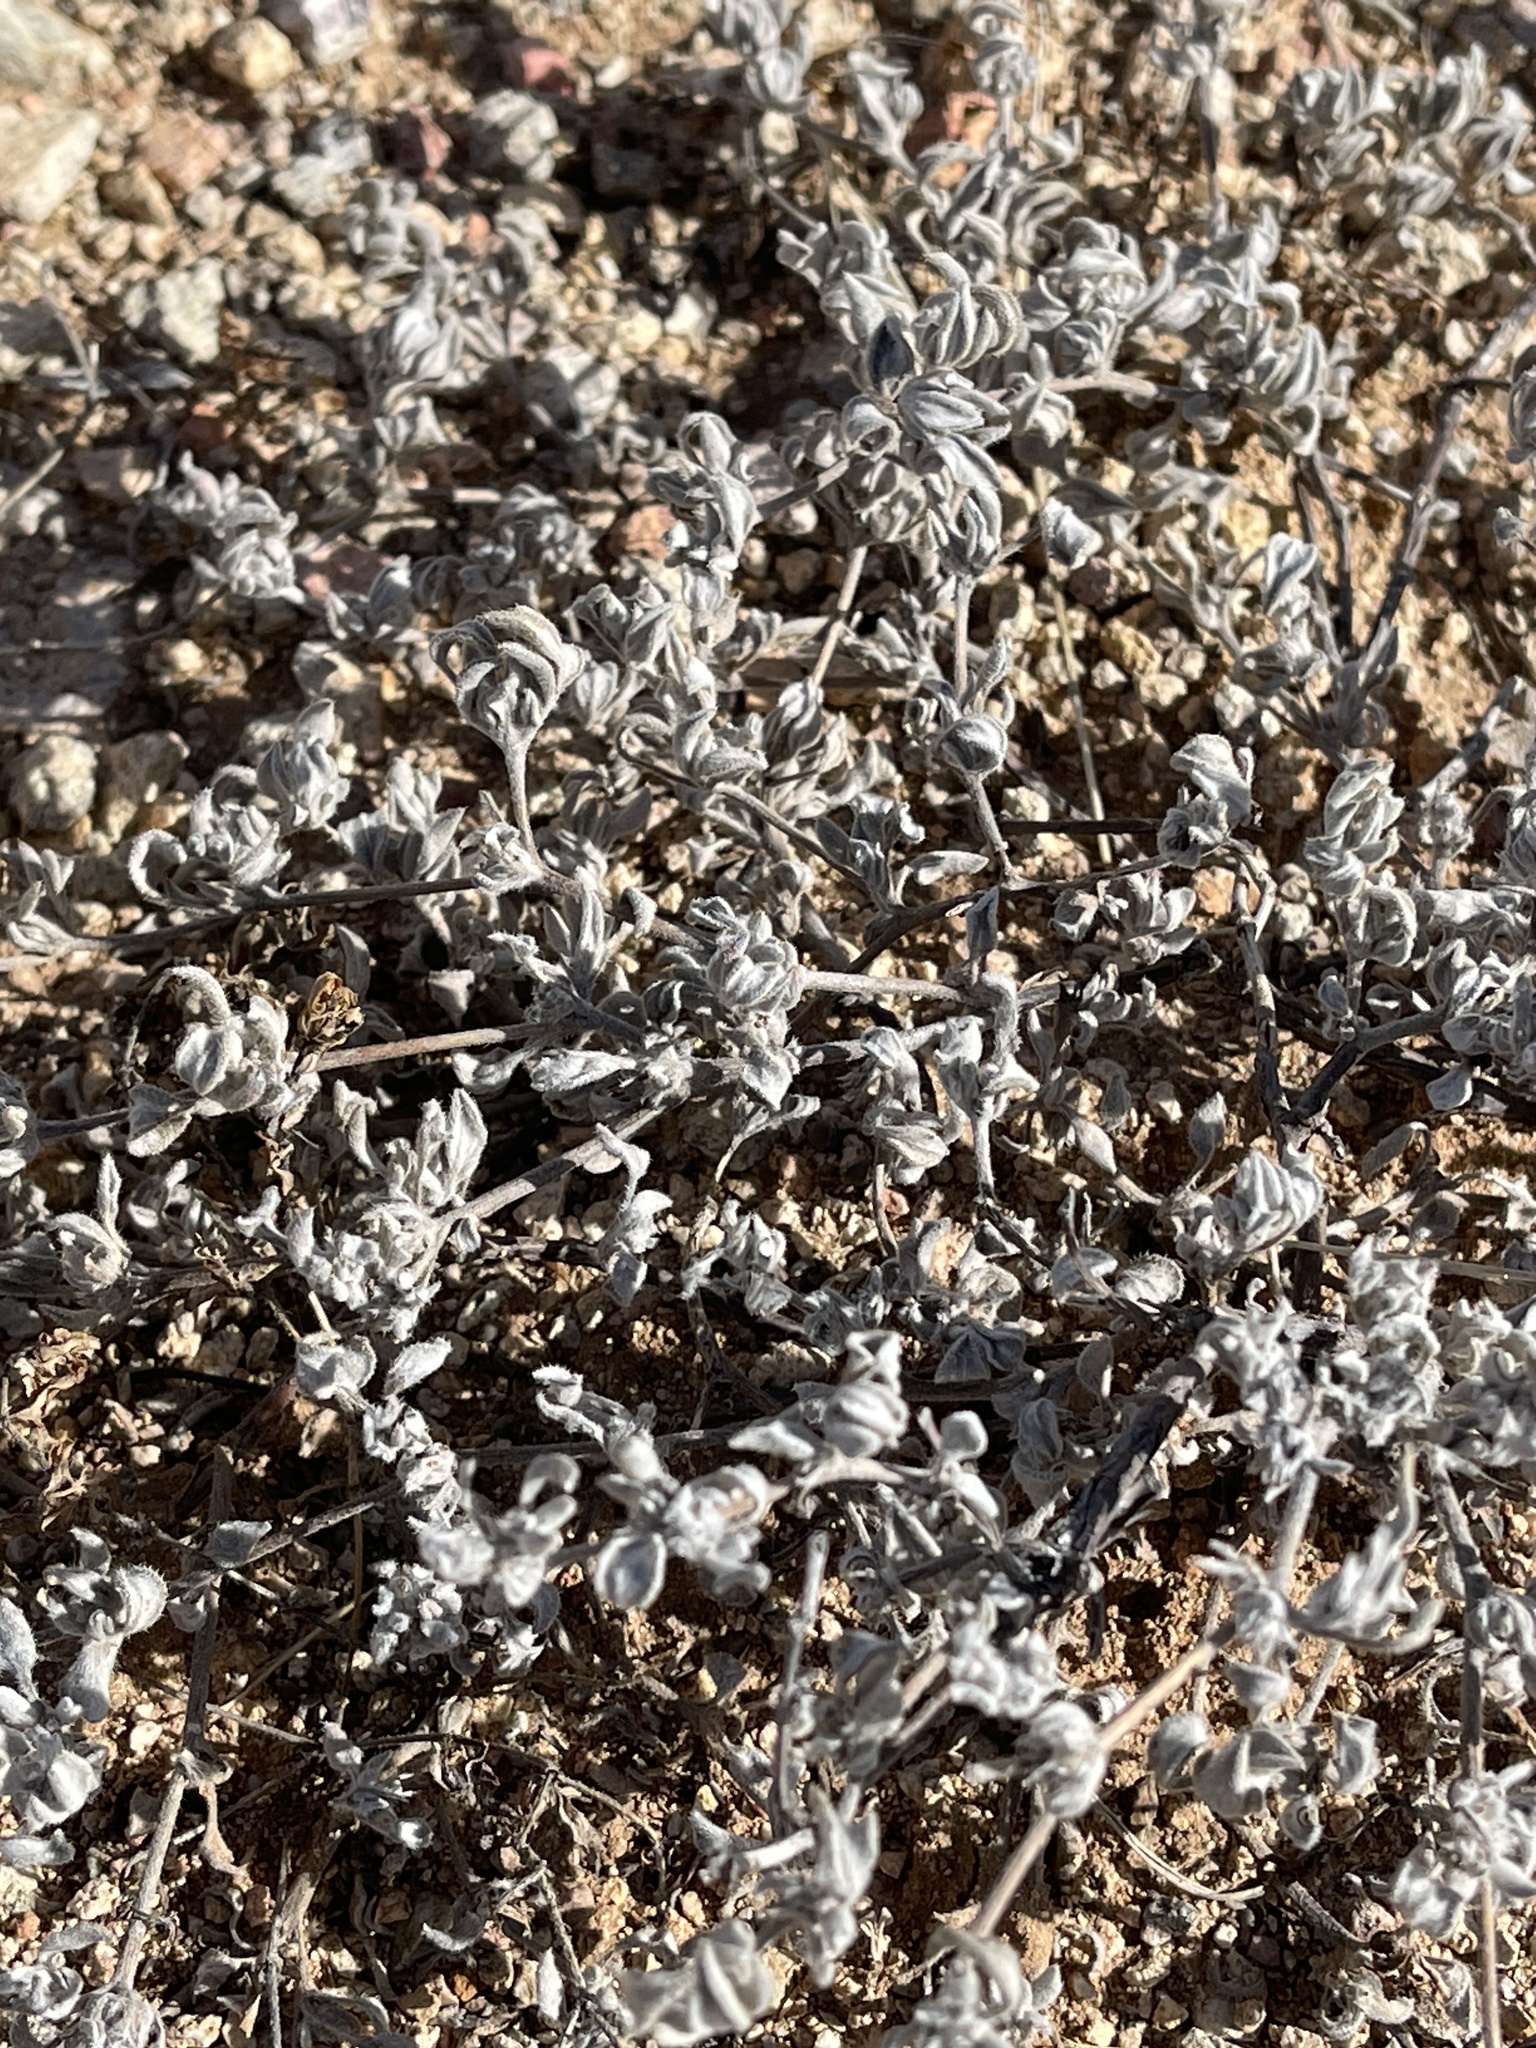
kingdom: Plantae
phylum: Tracheophyta
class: Magnoliopsida
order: Boraginales
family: Ehretiaceae
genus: Tiquilia
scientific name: Tiquilia canescens
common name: Hairy tiquilia
